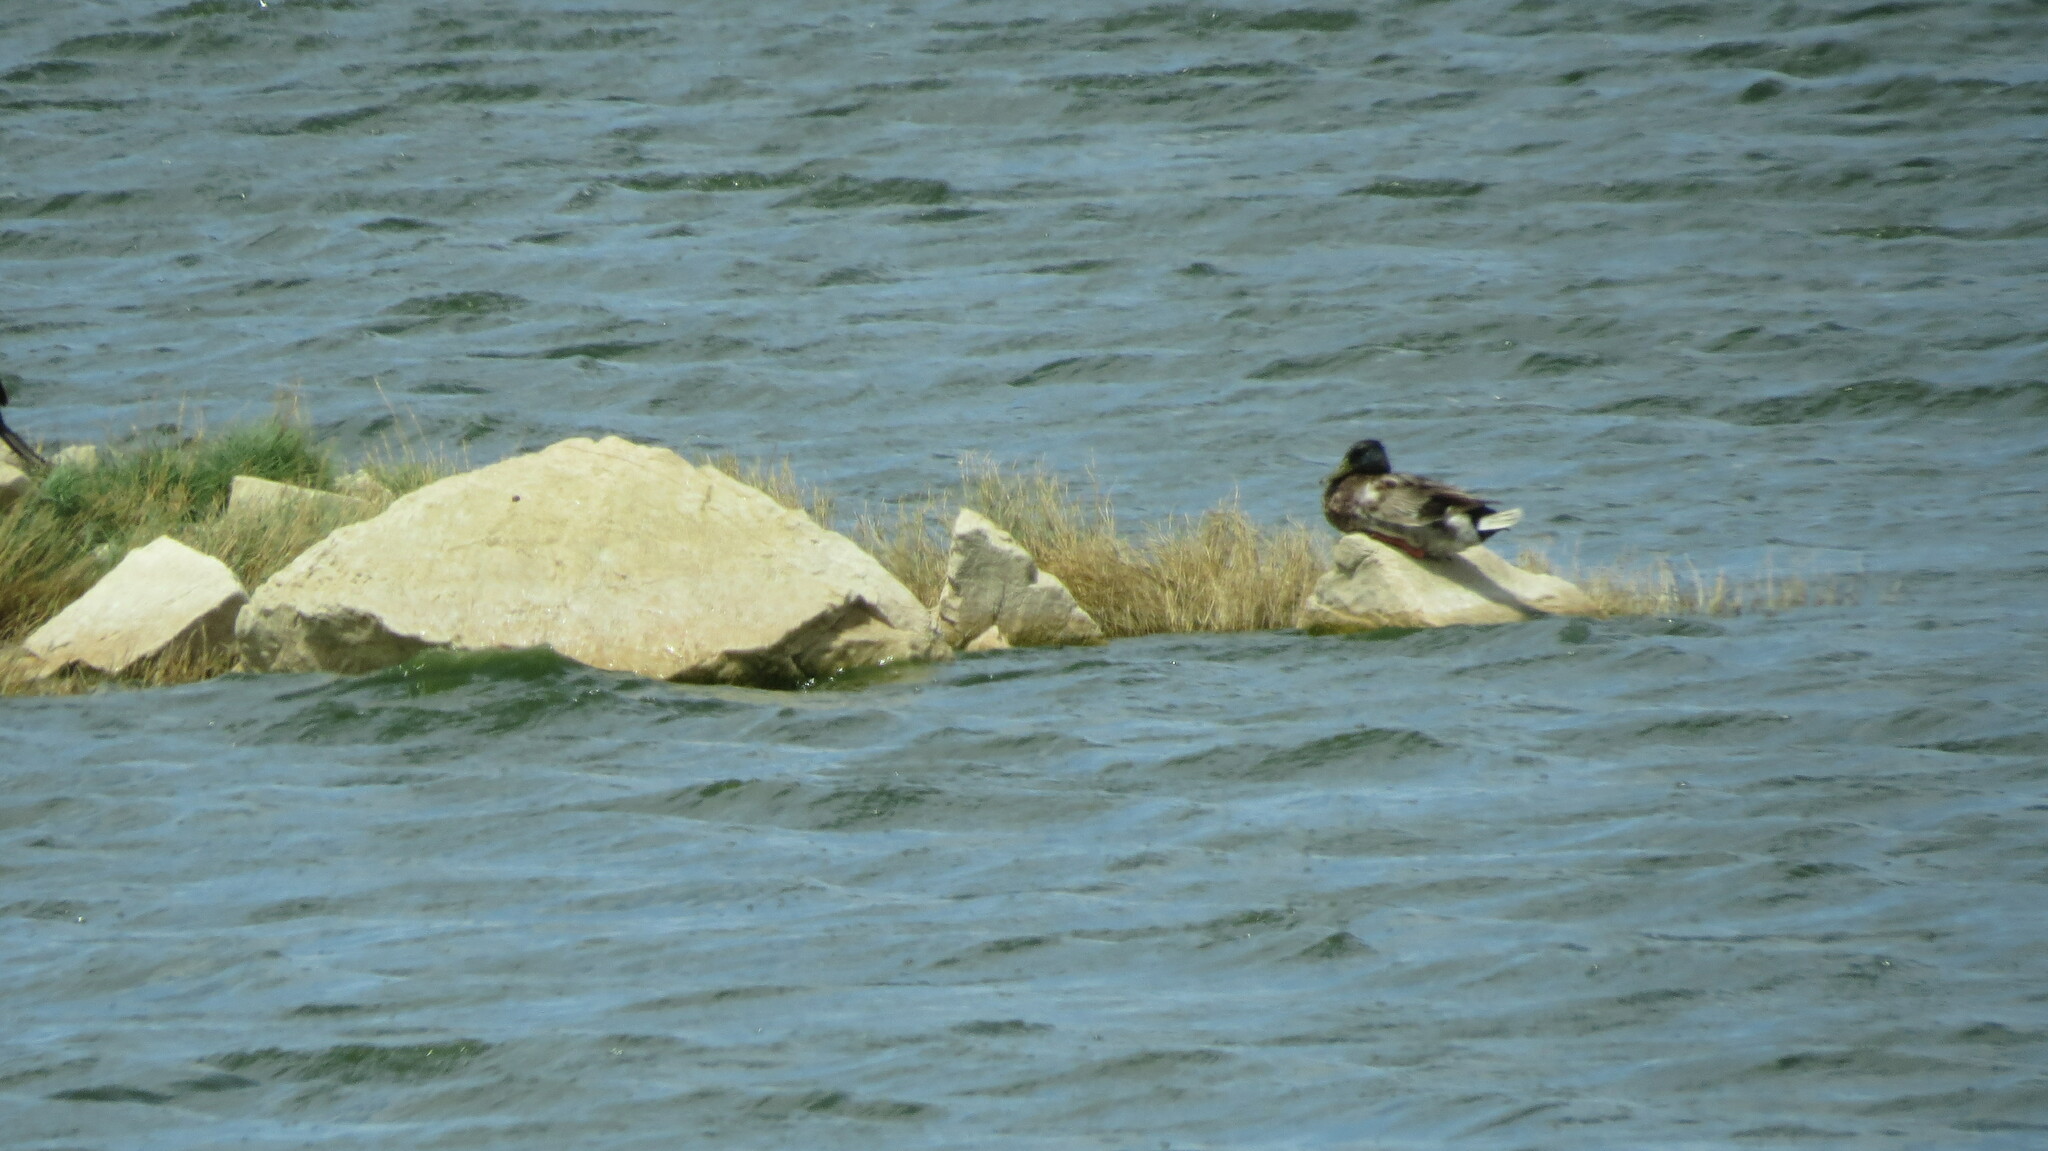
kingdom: Animalia
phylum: Chordata
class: Aves
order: Anseriformes
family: Anatidae
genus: Anas
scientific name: Anas platyrhynchos
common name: Mallard
